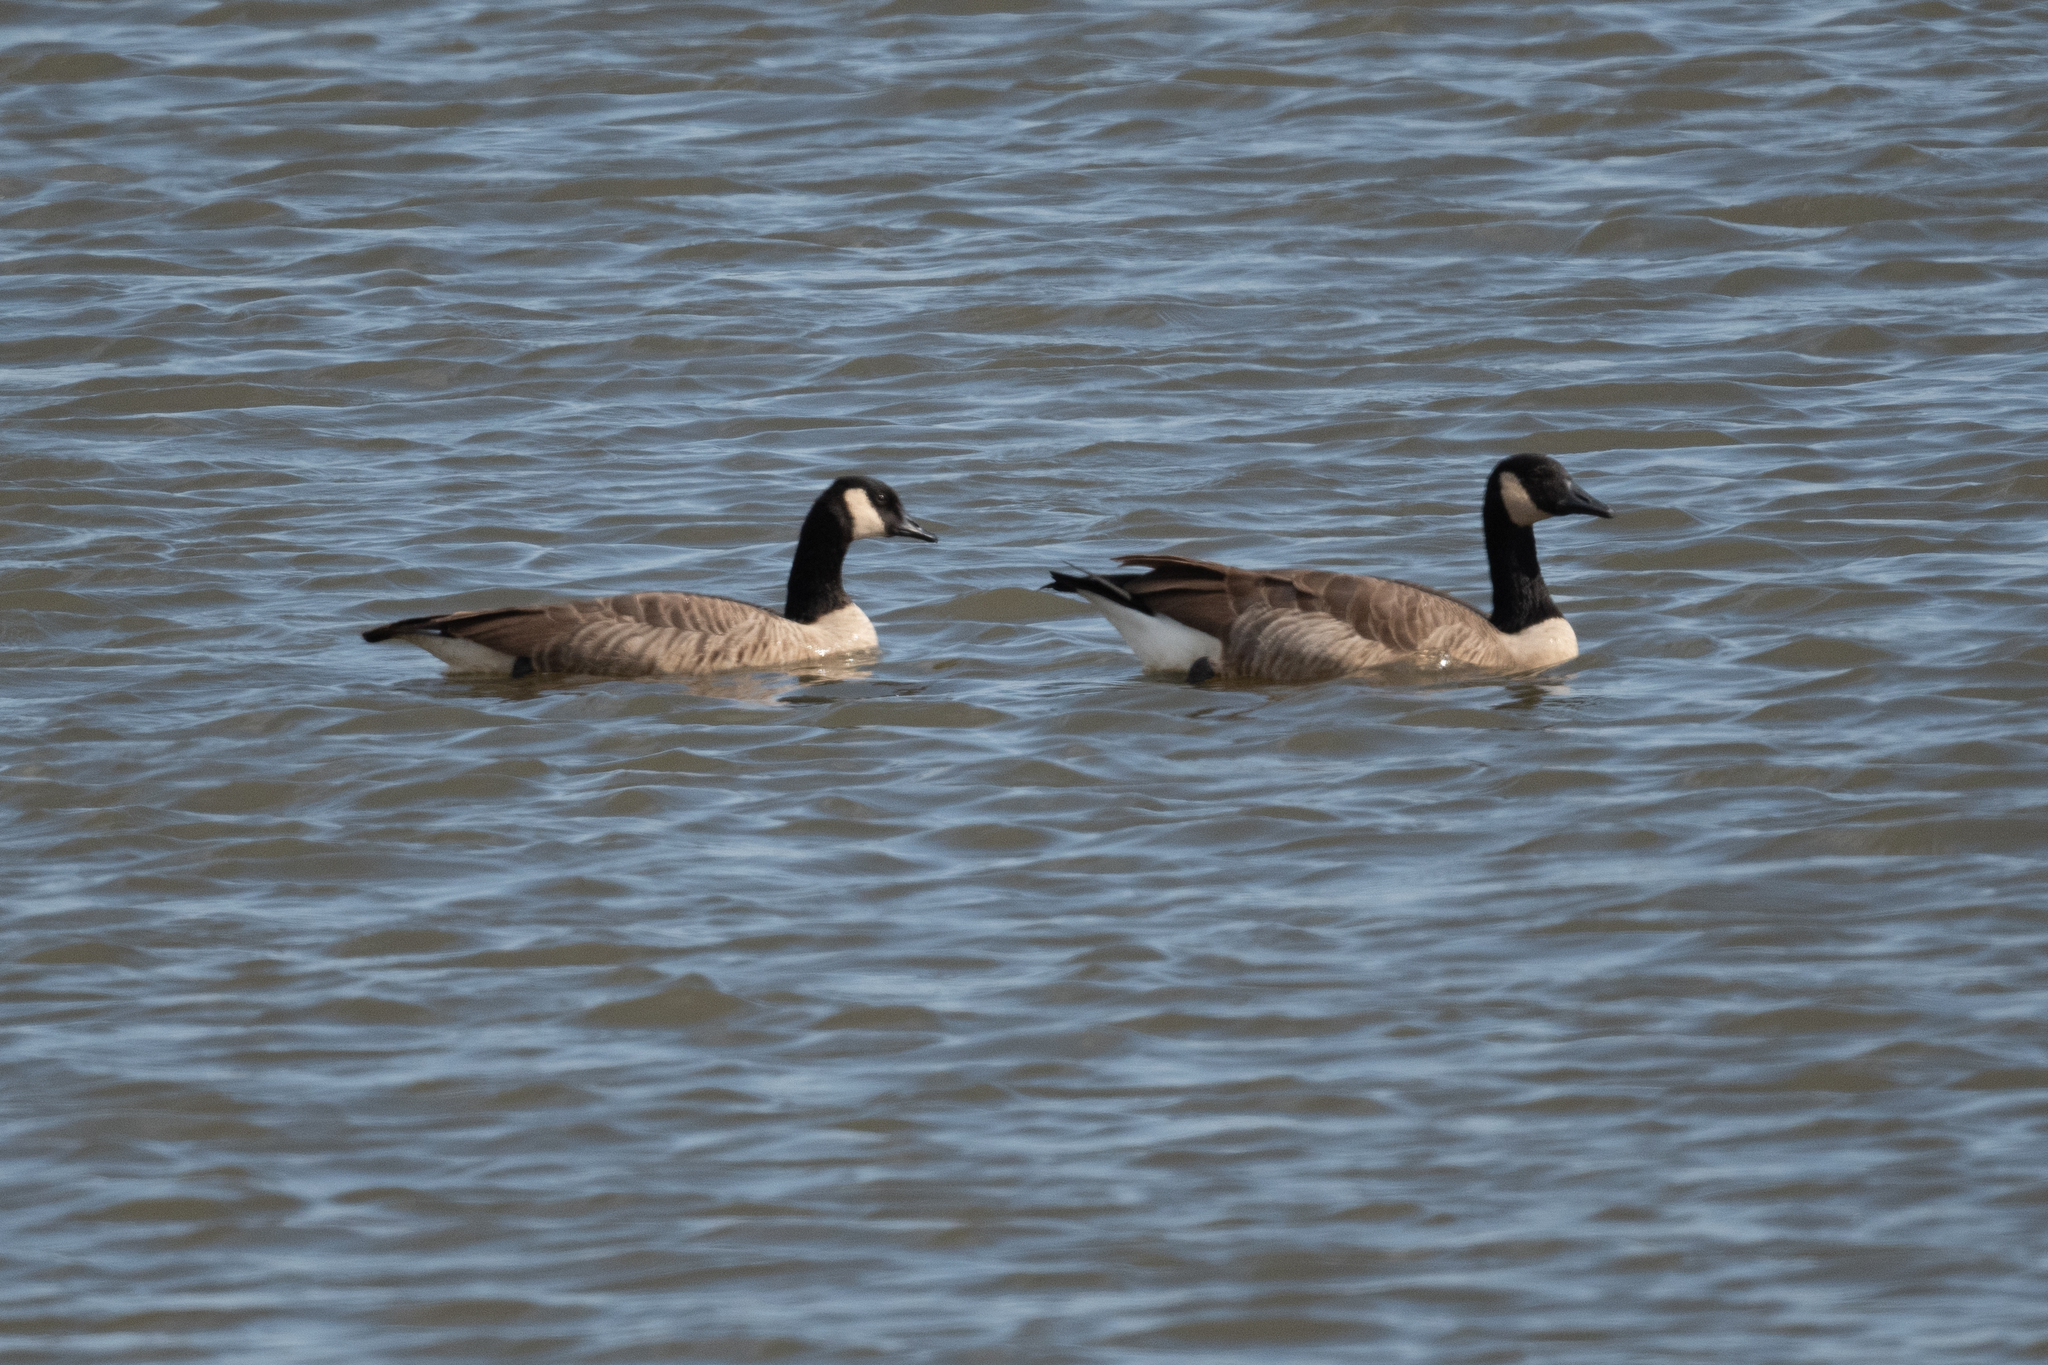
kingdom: Animalia
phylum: Chordata
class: Aves
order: Anseriformes
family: Anatidae
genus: Branta
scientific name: Branta canadensis
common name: Canada goose
